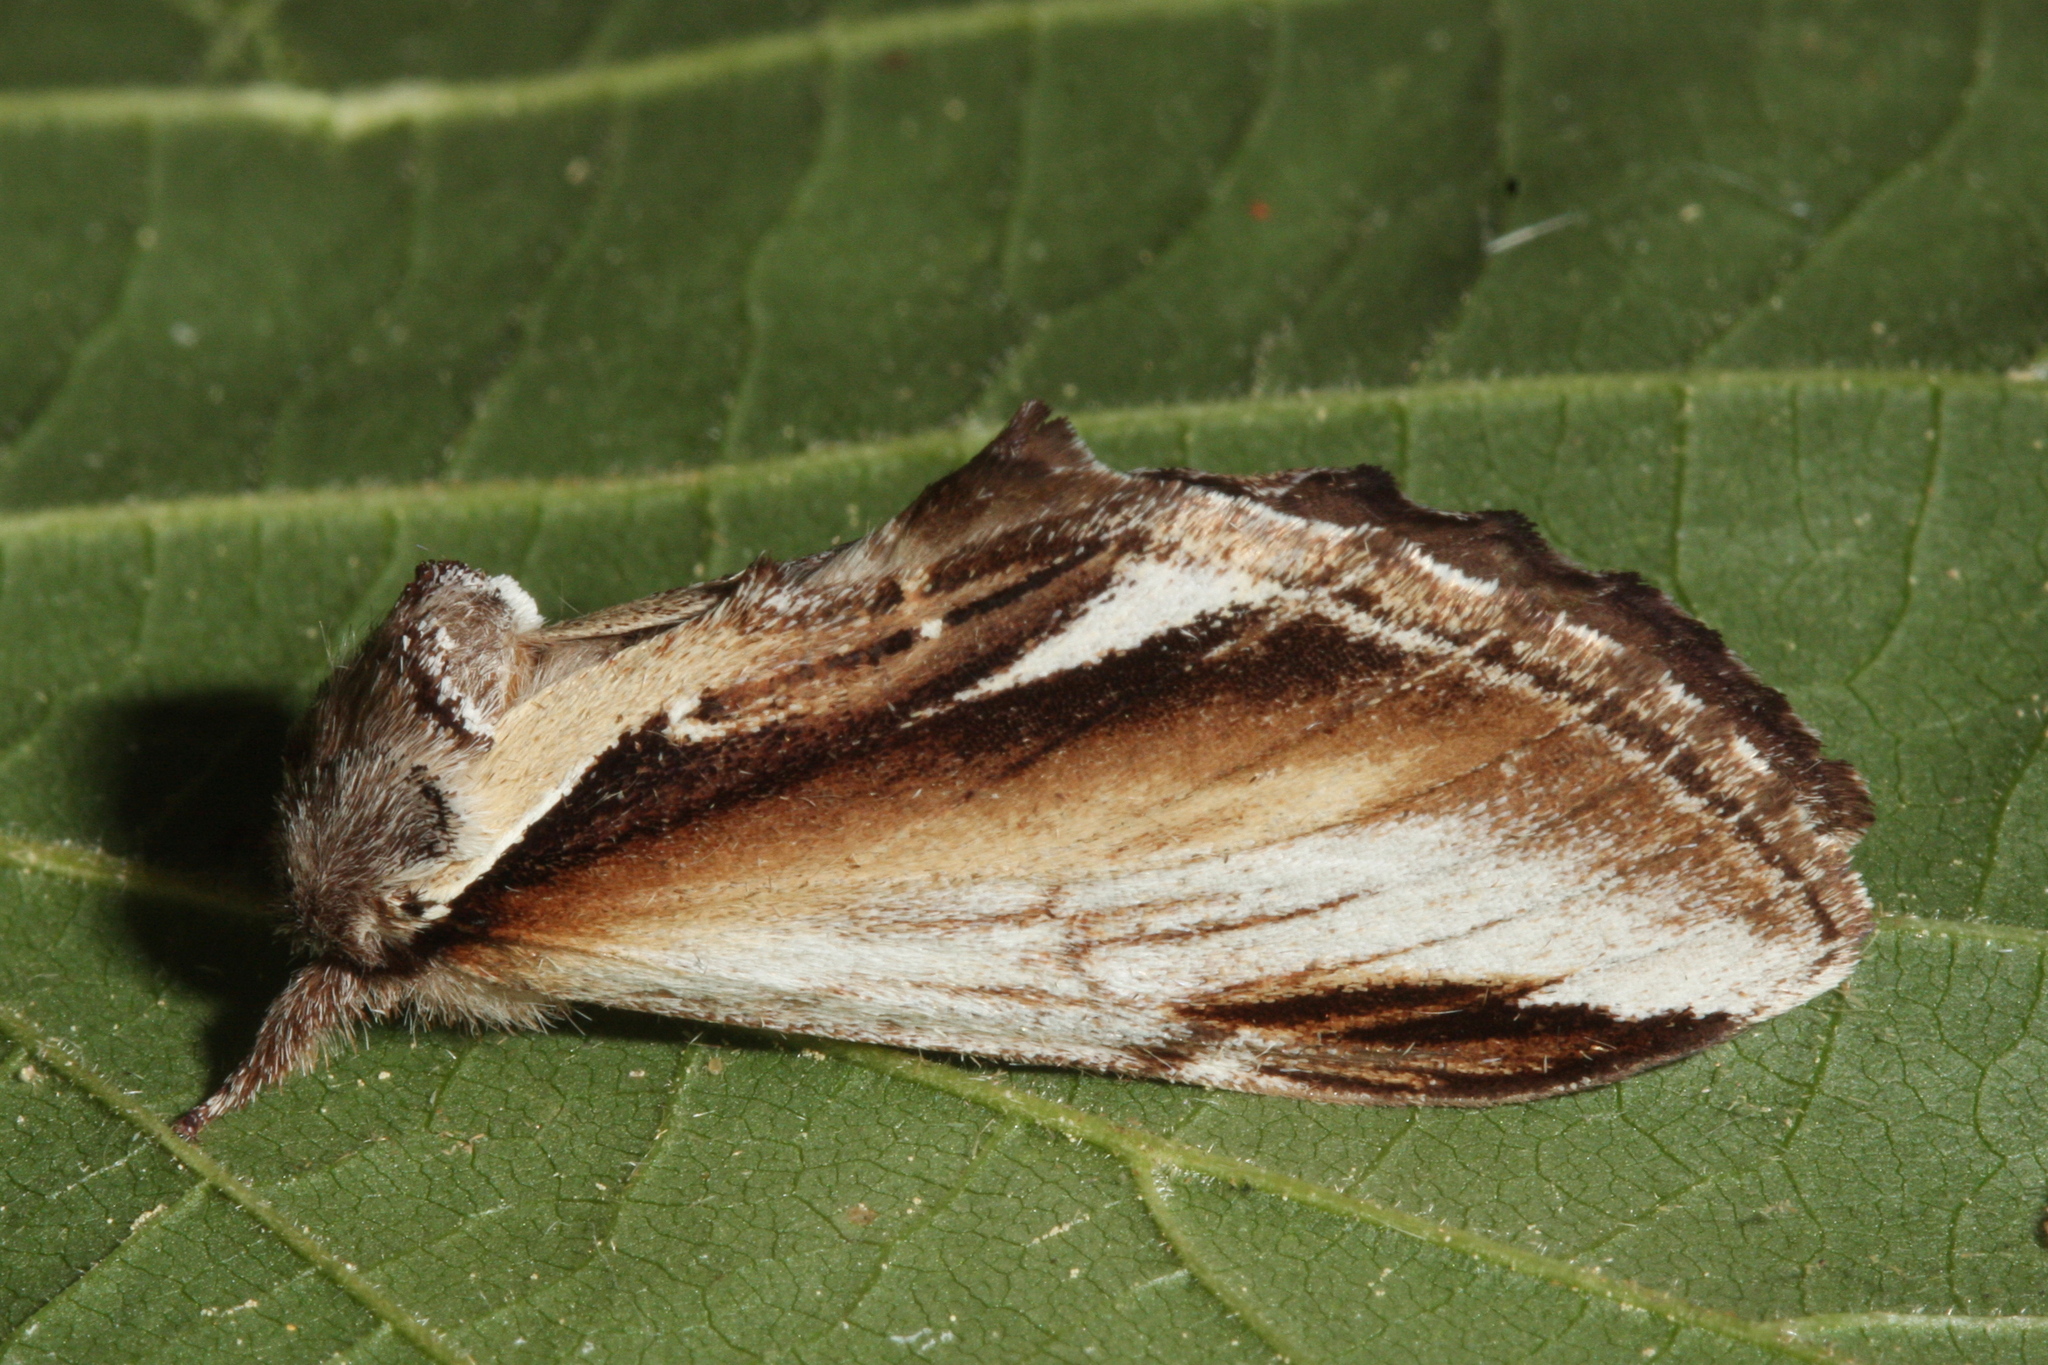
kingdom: Animalia
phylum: Arthropoda
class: Insecta
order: Lepidoptera
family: Notodontidae
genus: Pheosia
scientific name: Pheosia gnoma
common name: Lesser swallow prominent
